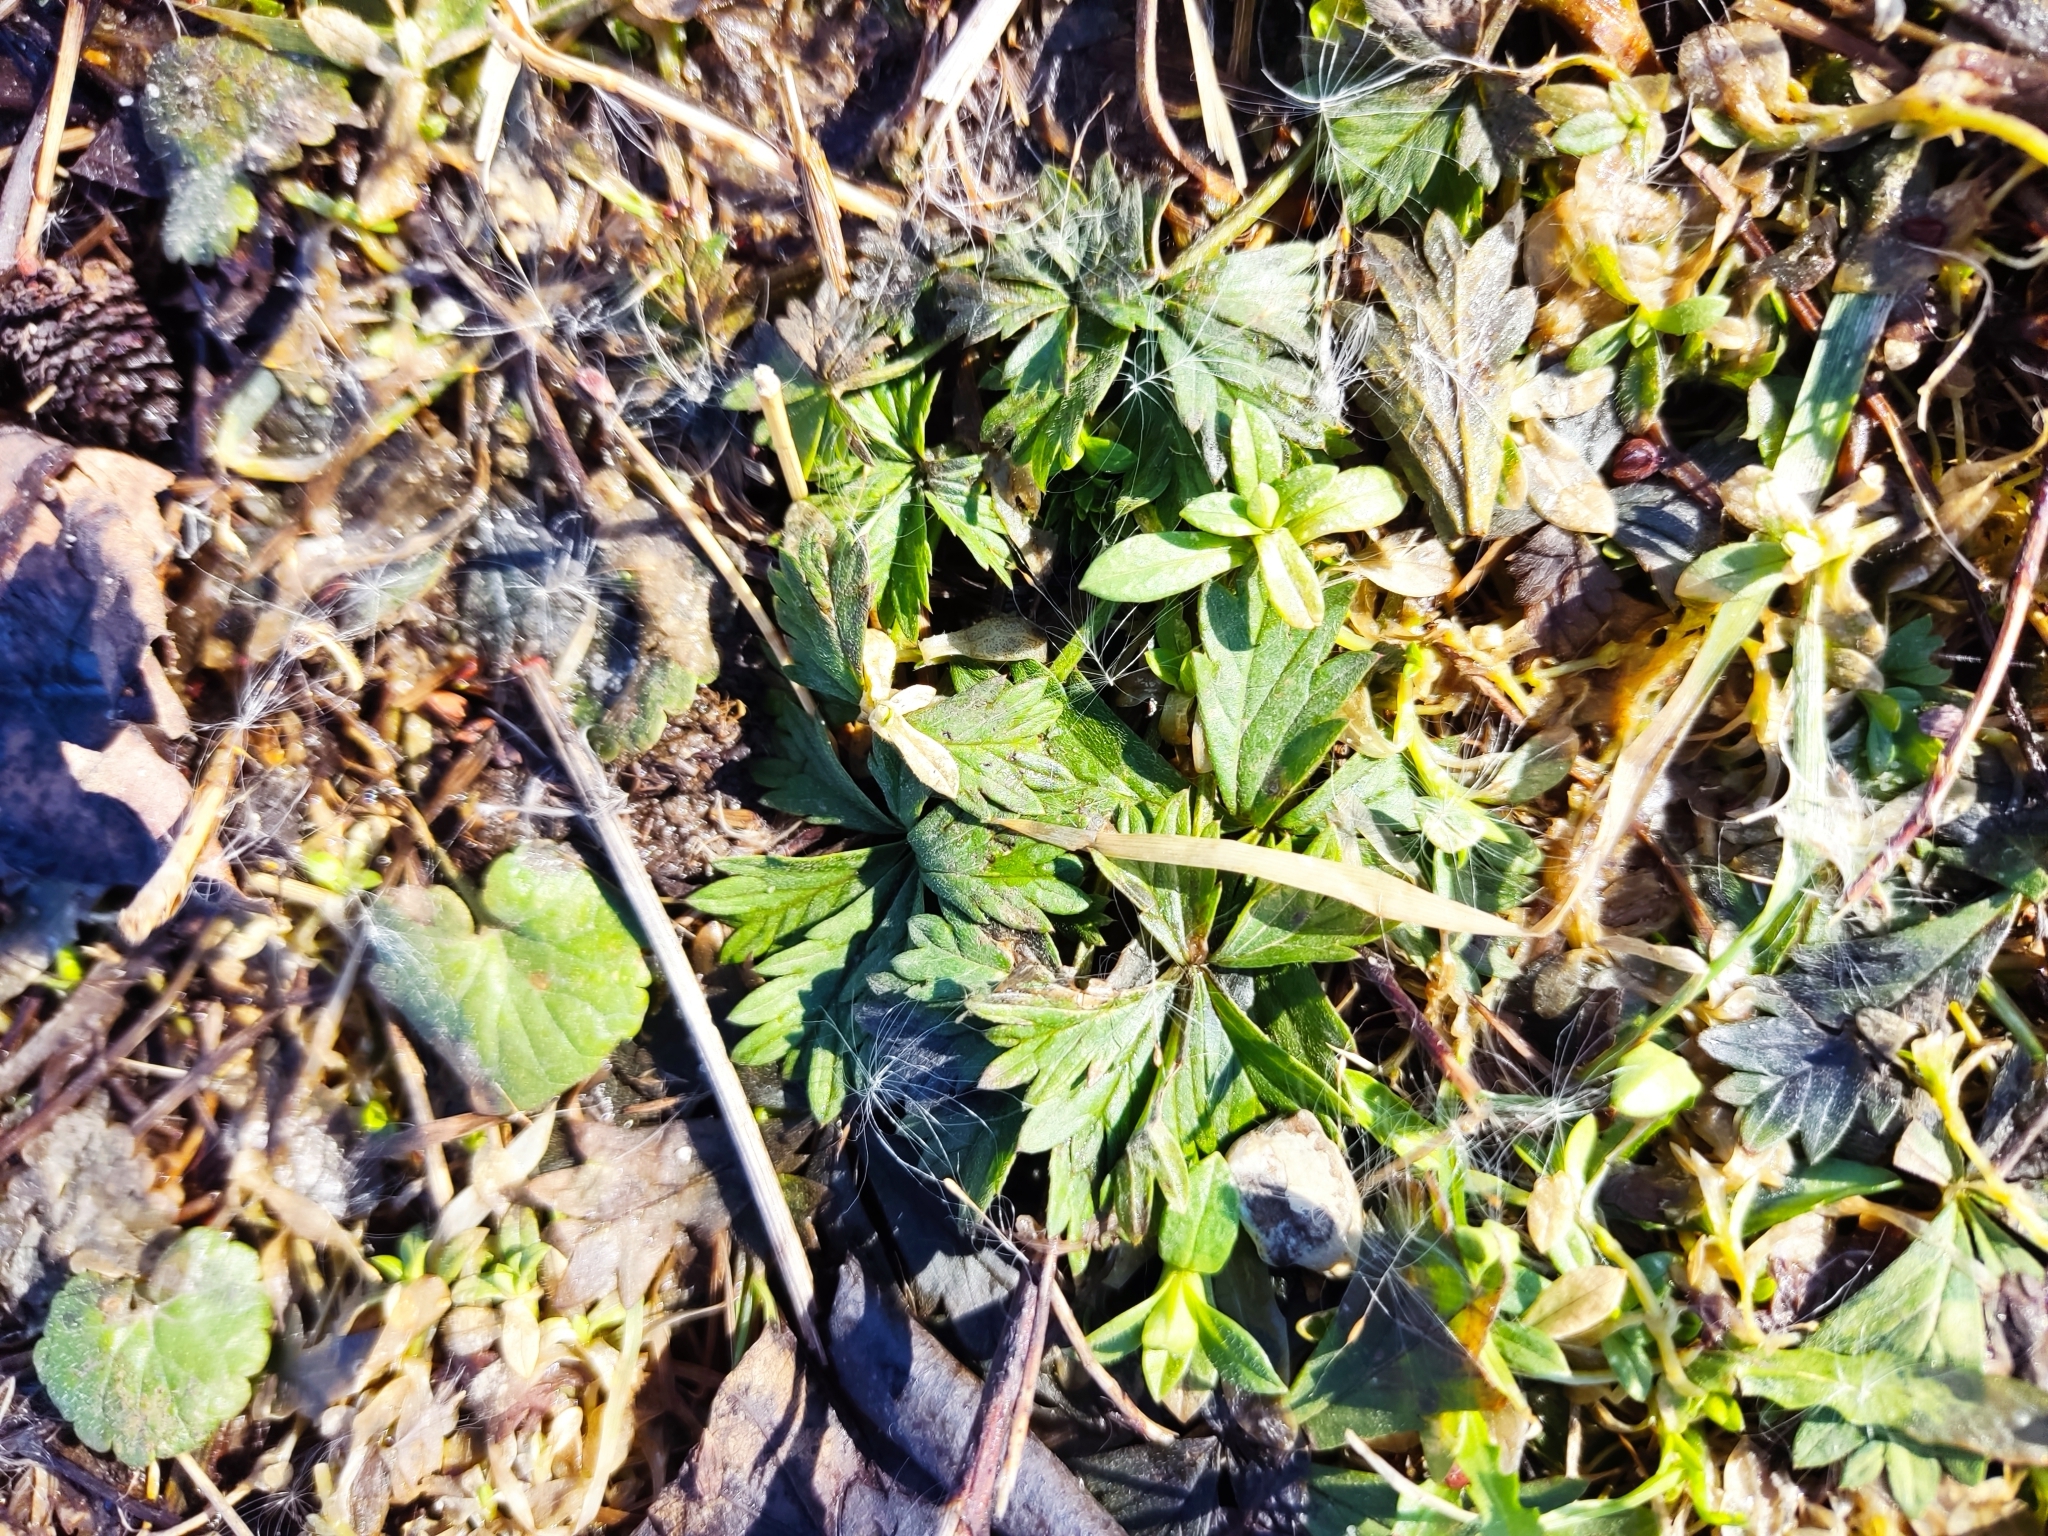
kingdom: Plantae
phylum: Tracheophyta
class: Magnoliopsida
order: Rosales
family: Rosaceae
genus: Potentilla
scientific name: Potentilla argentea
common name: Hoary cinquefoil
